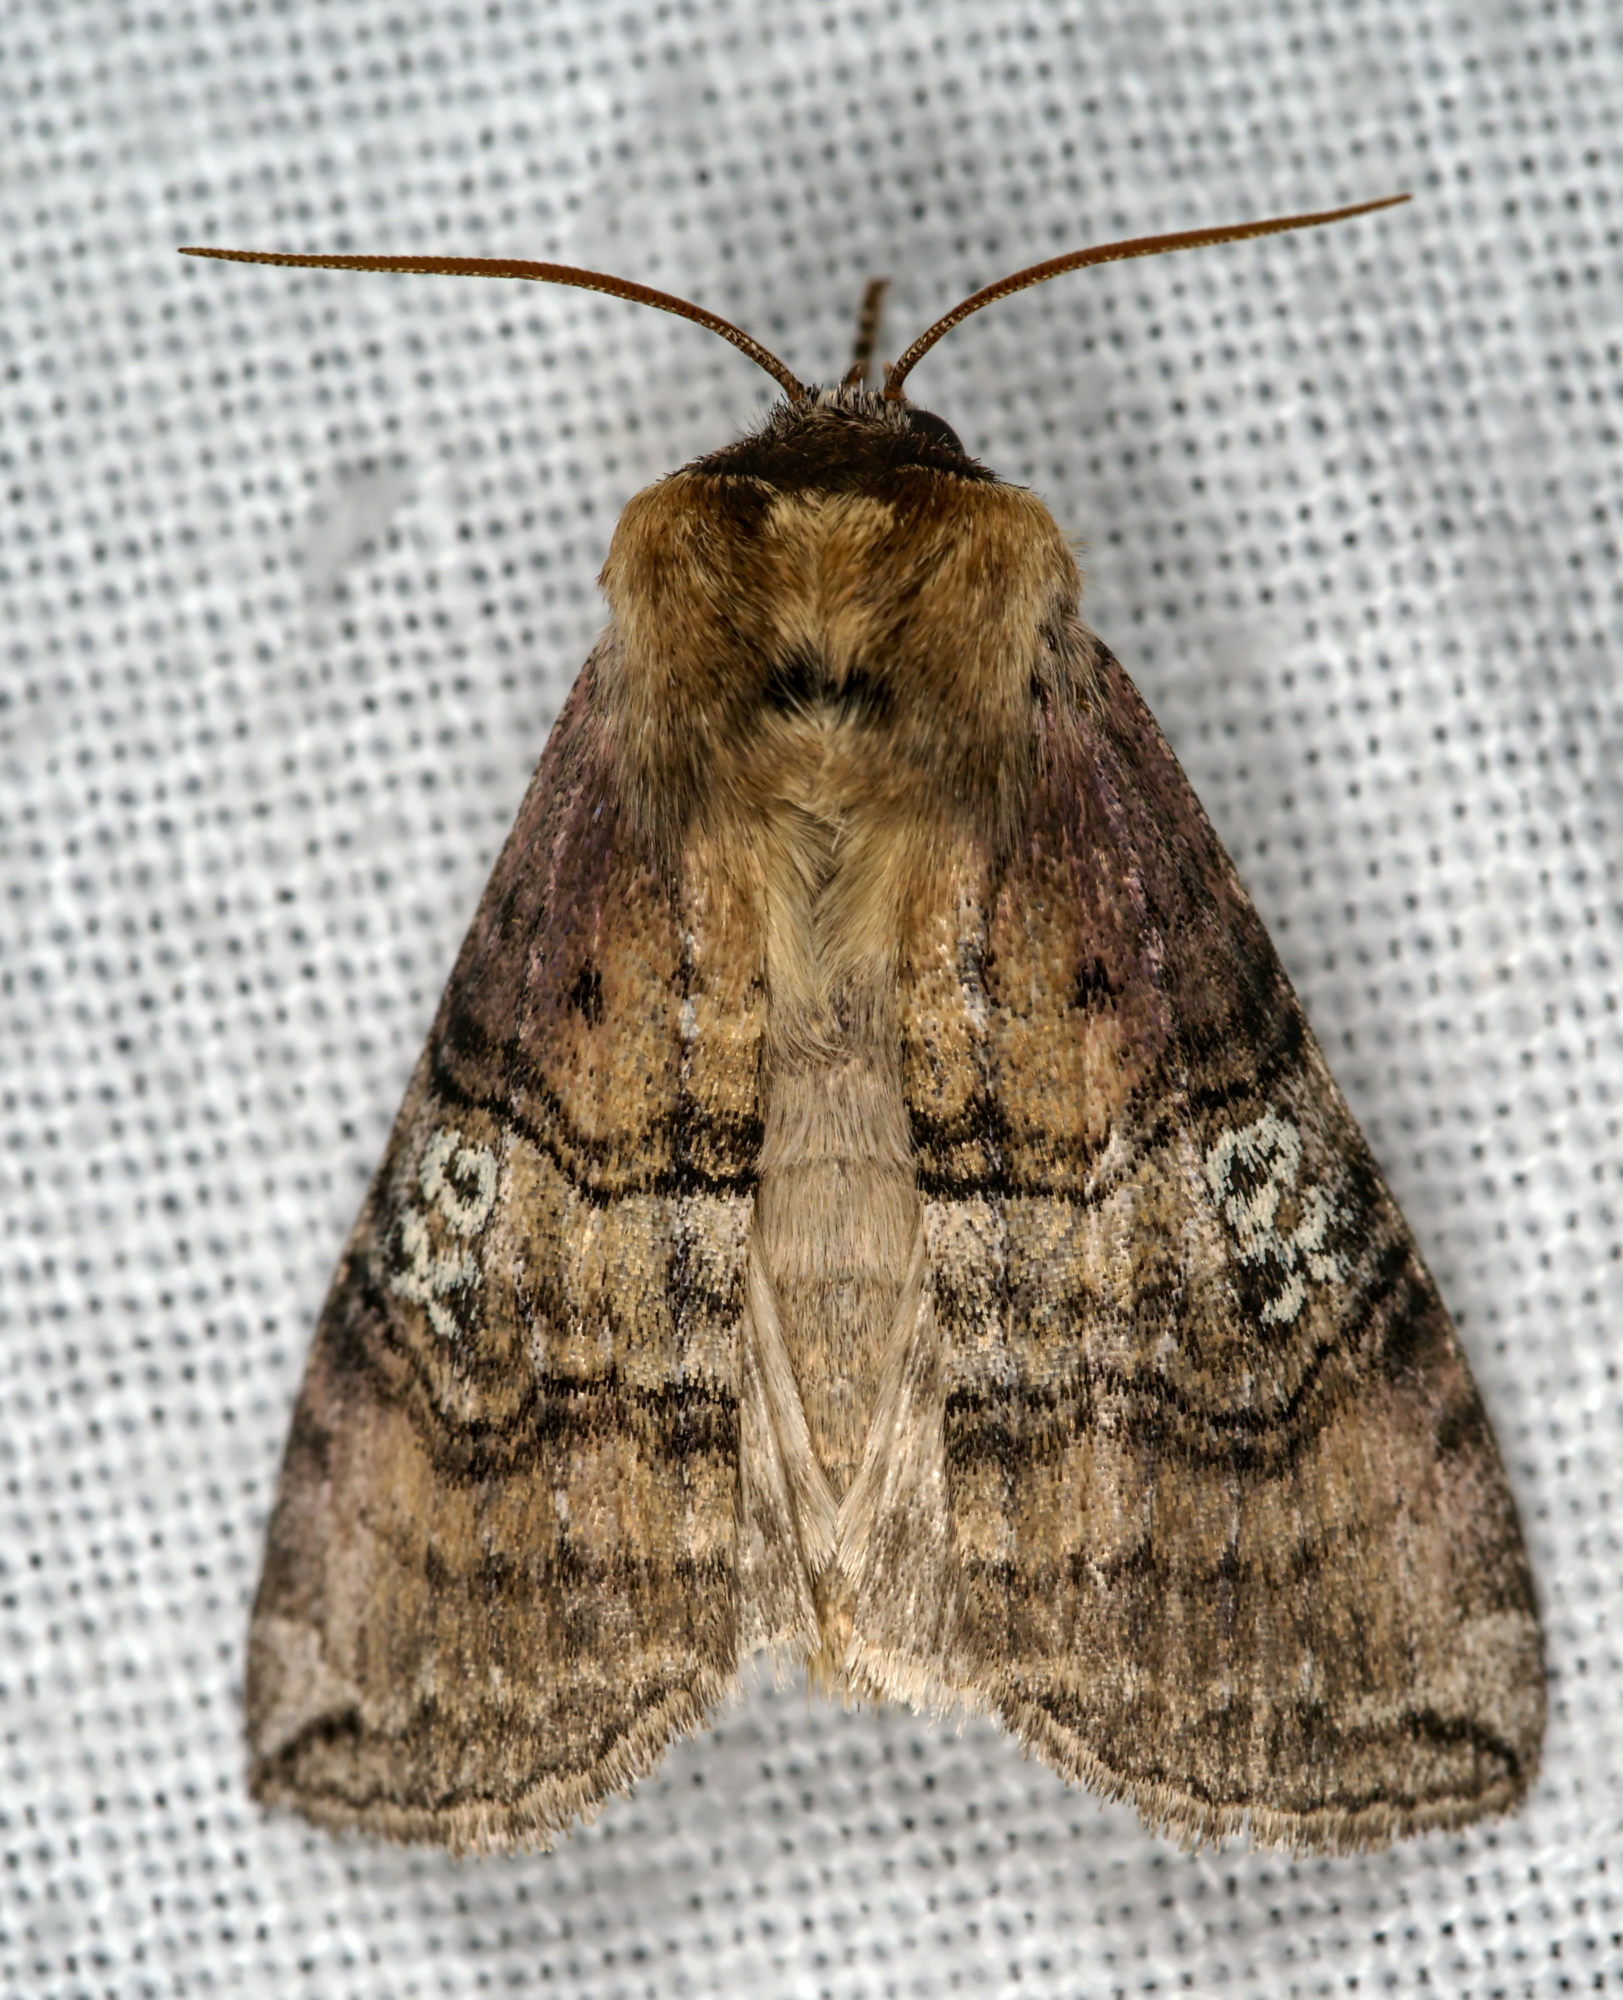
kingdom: Animalia
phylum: Arthropoda
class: Insecta
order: Lepidoptera
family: Drepanidae
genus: Tethea
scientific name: Tethea ocularis
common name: Figure of eighty
